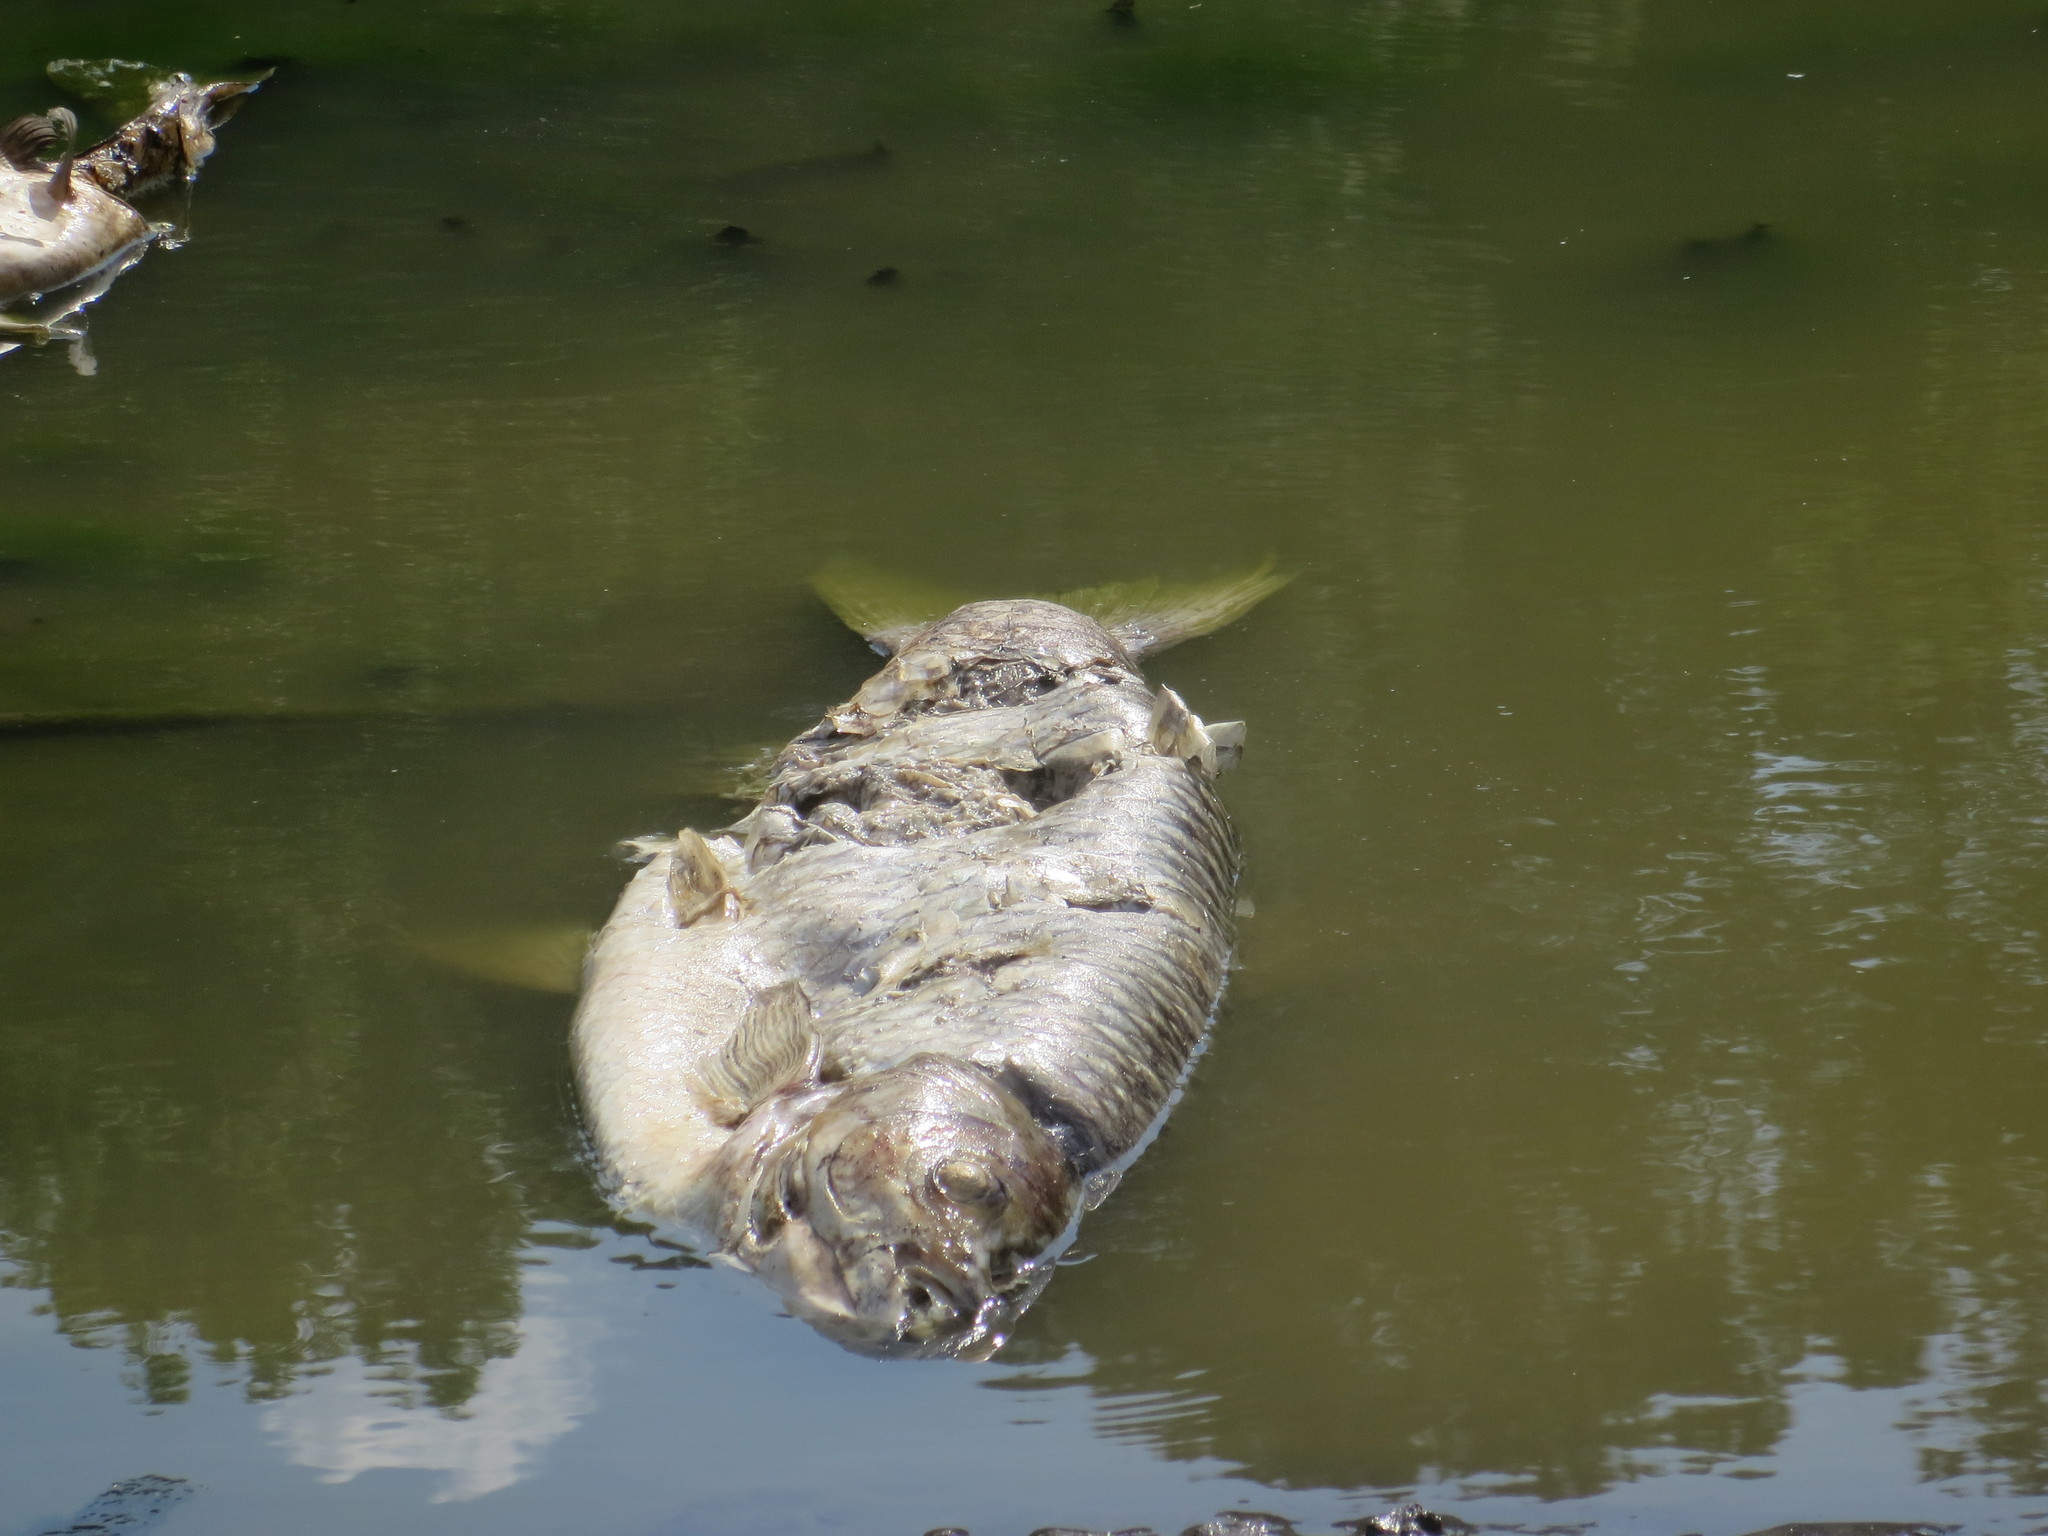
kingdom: Animalia
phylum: Chordata
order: Cypriniformes
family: Cyprinidae
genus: Ctenopharyngodon
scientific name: Ctenopharyngodon idella
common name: Grass carp
